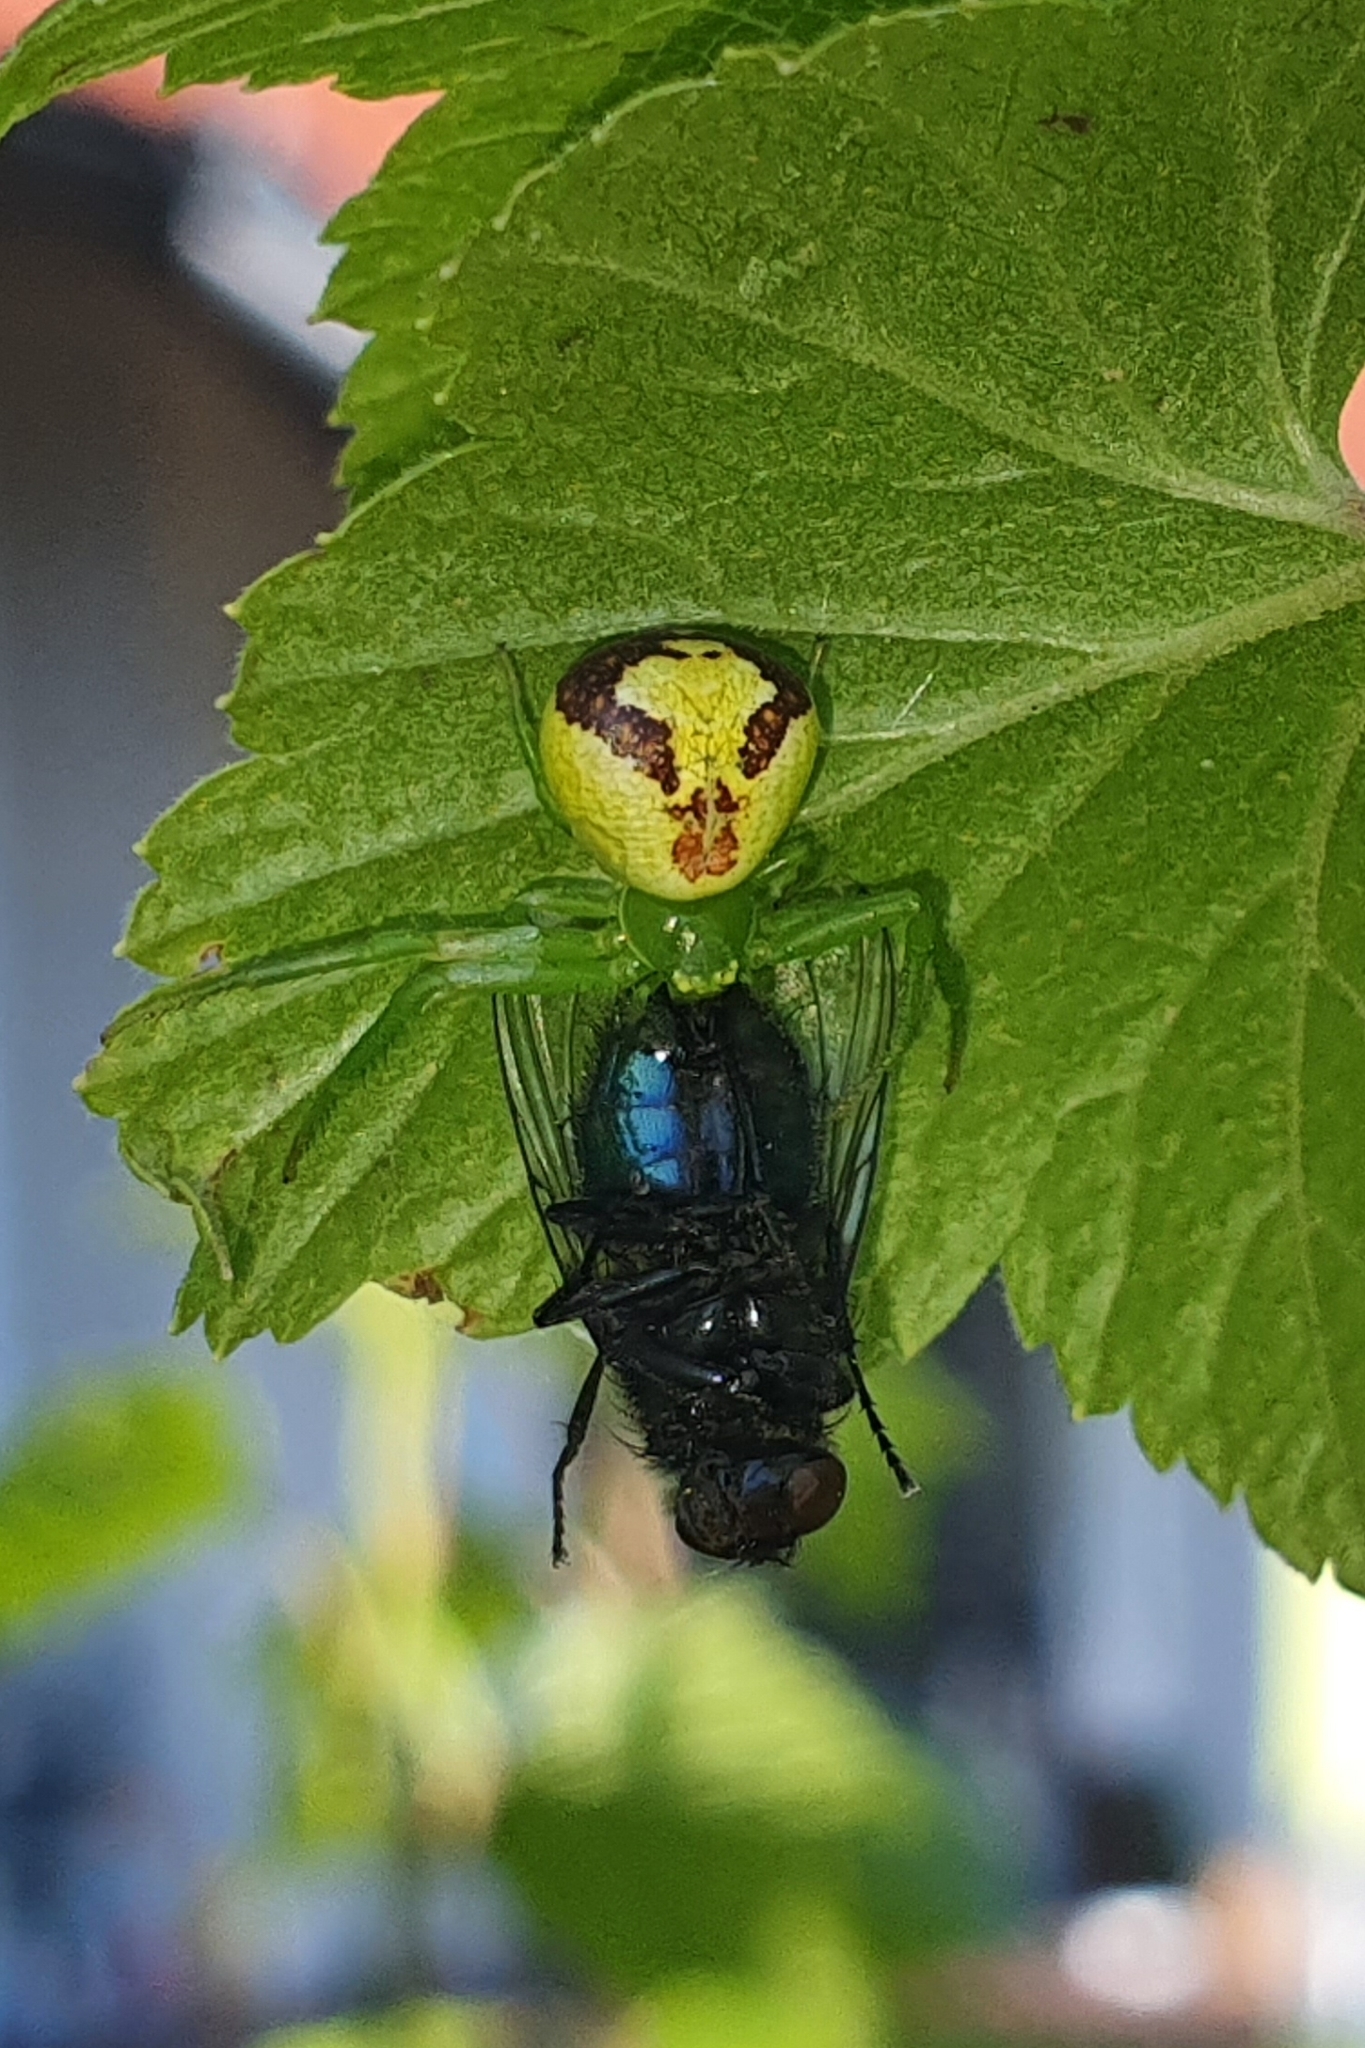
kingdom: Animalia
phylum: Arthropoda
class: Arachnida
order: Araneae
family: Thomisidae
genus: Ebrechtella
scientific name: Ebrechtella tricuspidata
